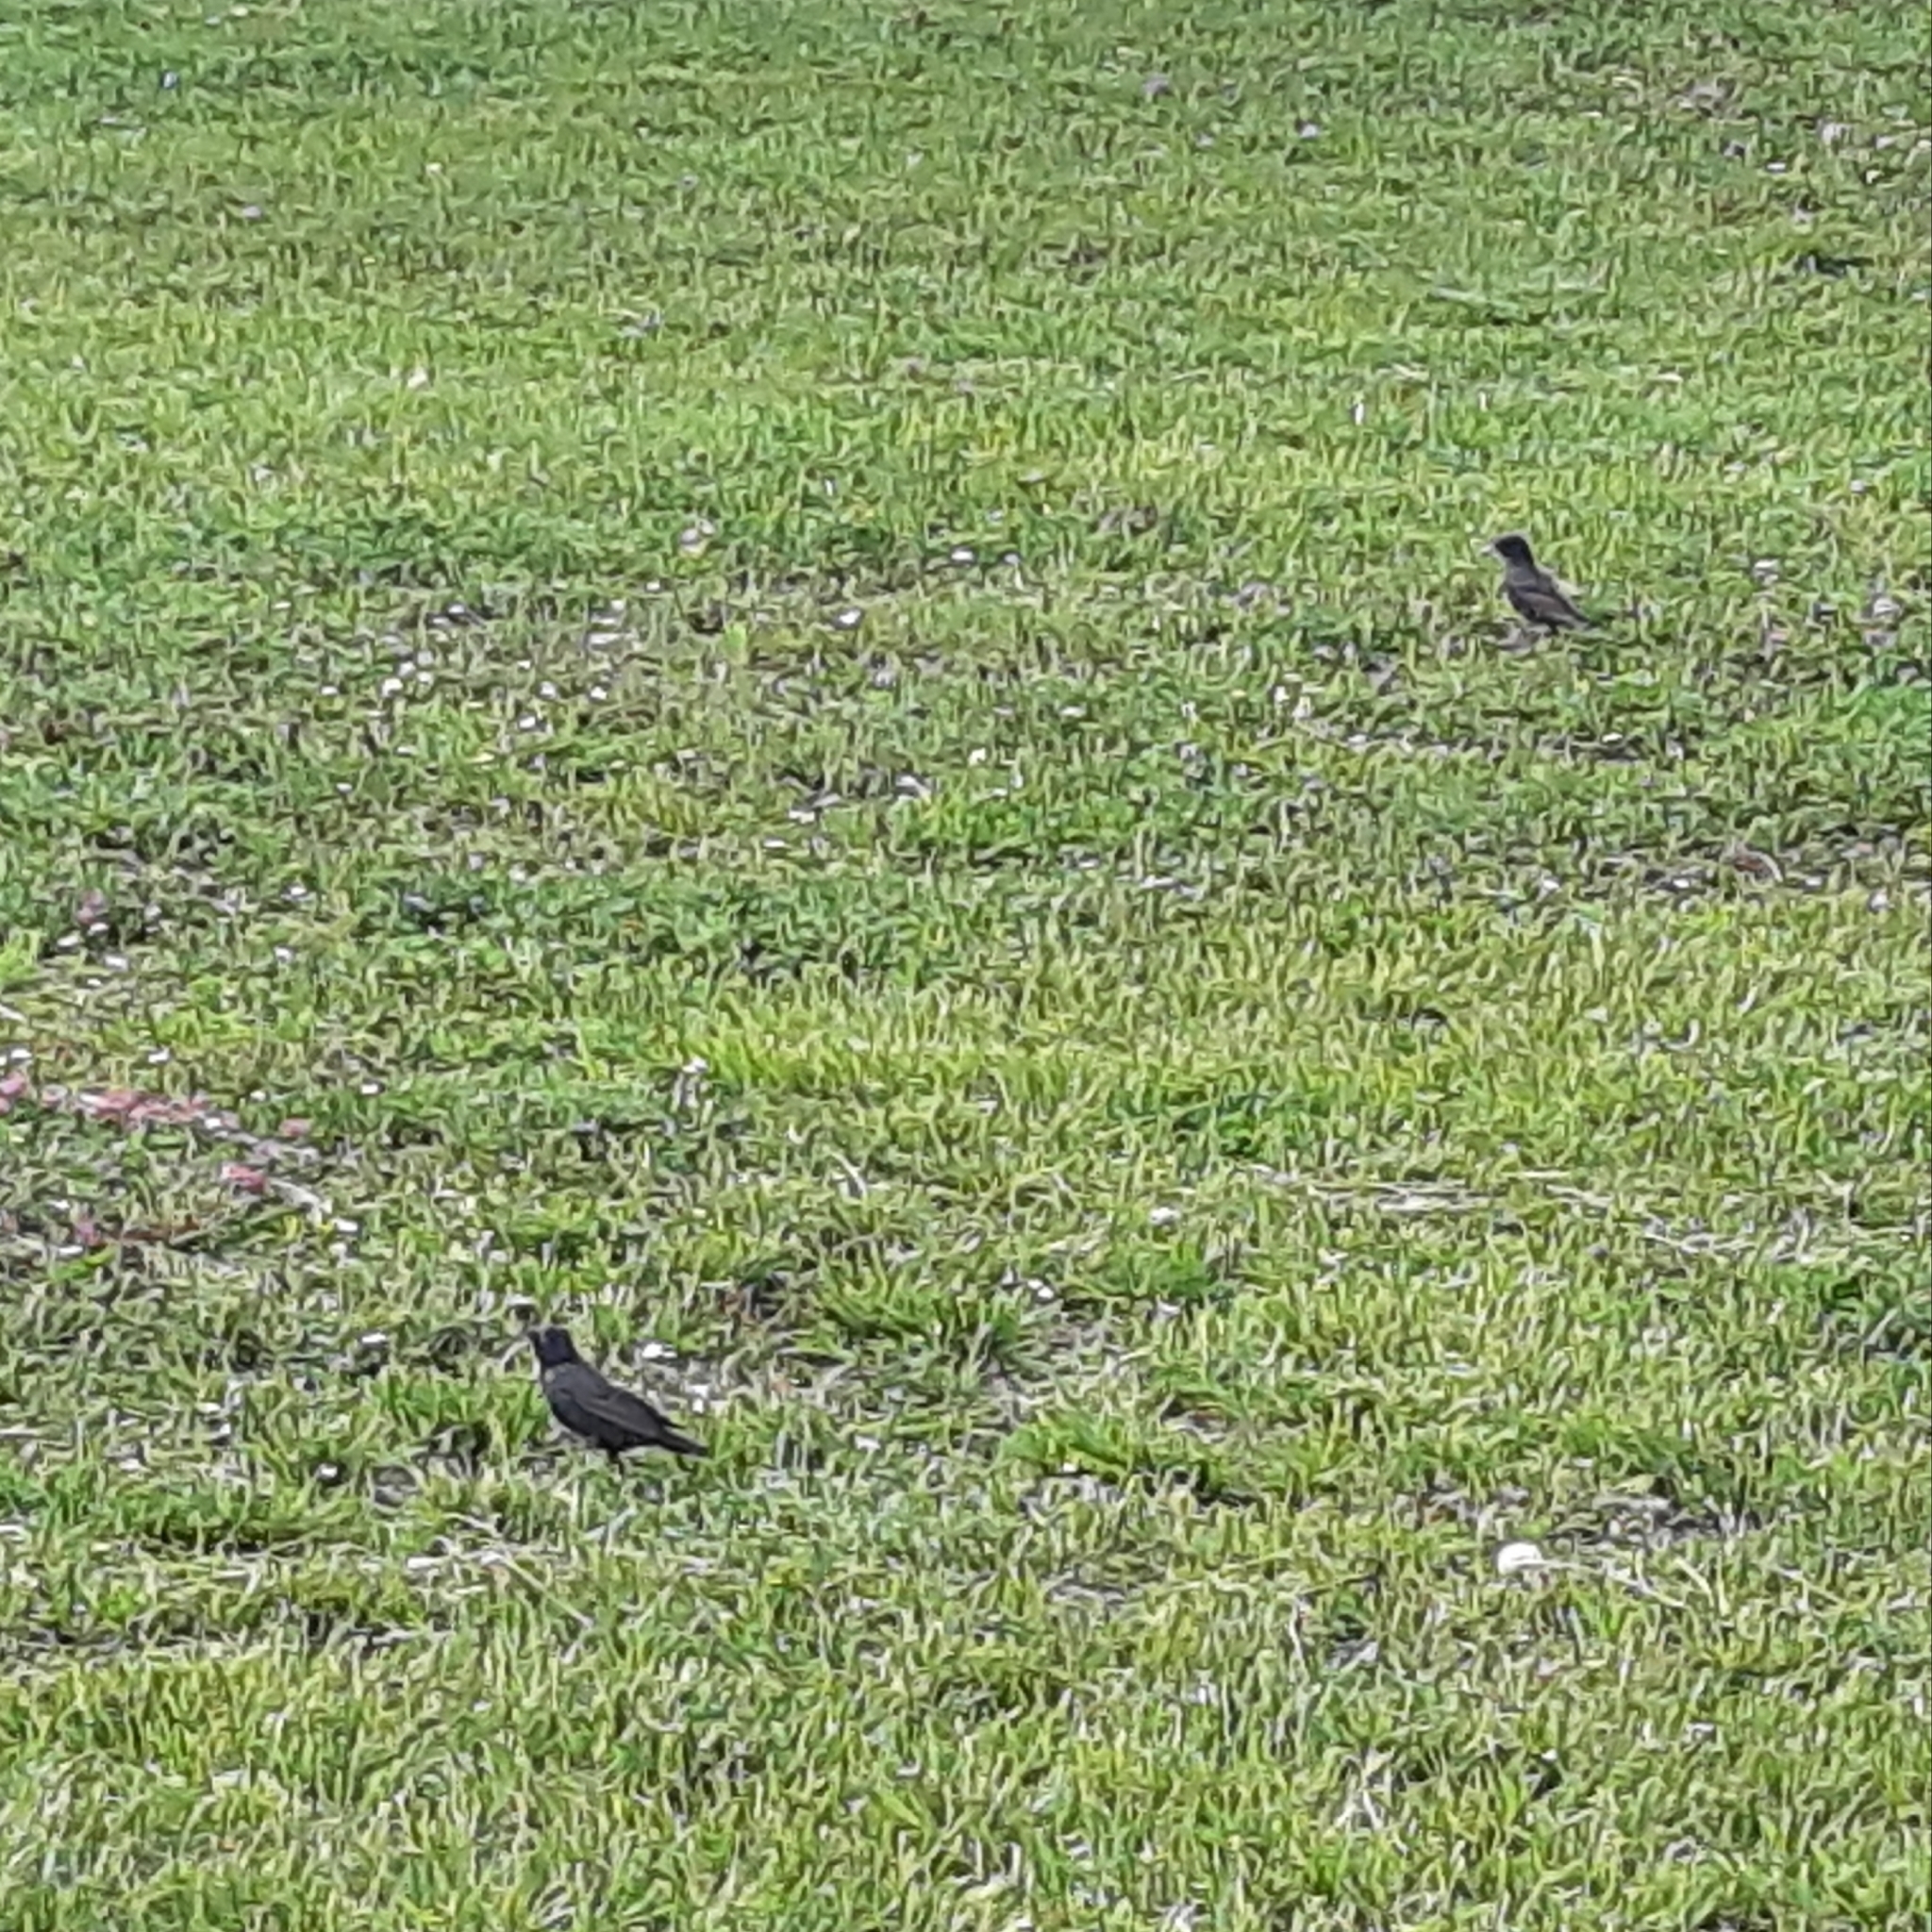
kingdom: Animalia
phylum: Chordata
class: Aves
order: Passeriformes
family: Sturnidae
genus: Sturnus
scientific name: Sturnus vulgaris
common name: Common starling
